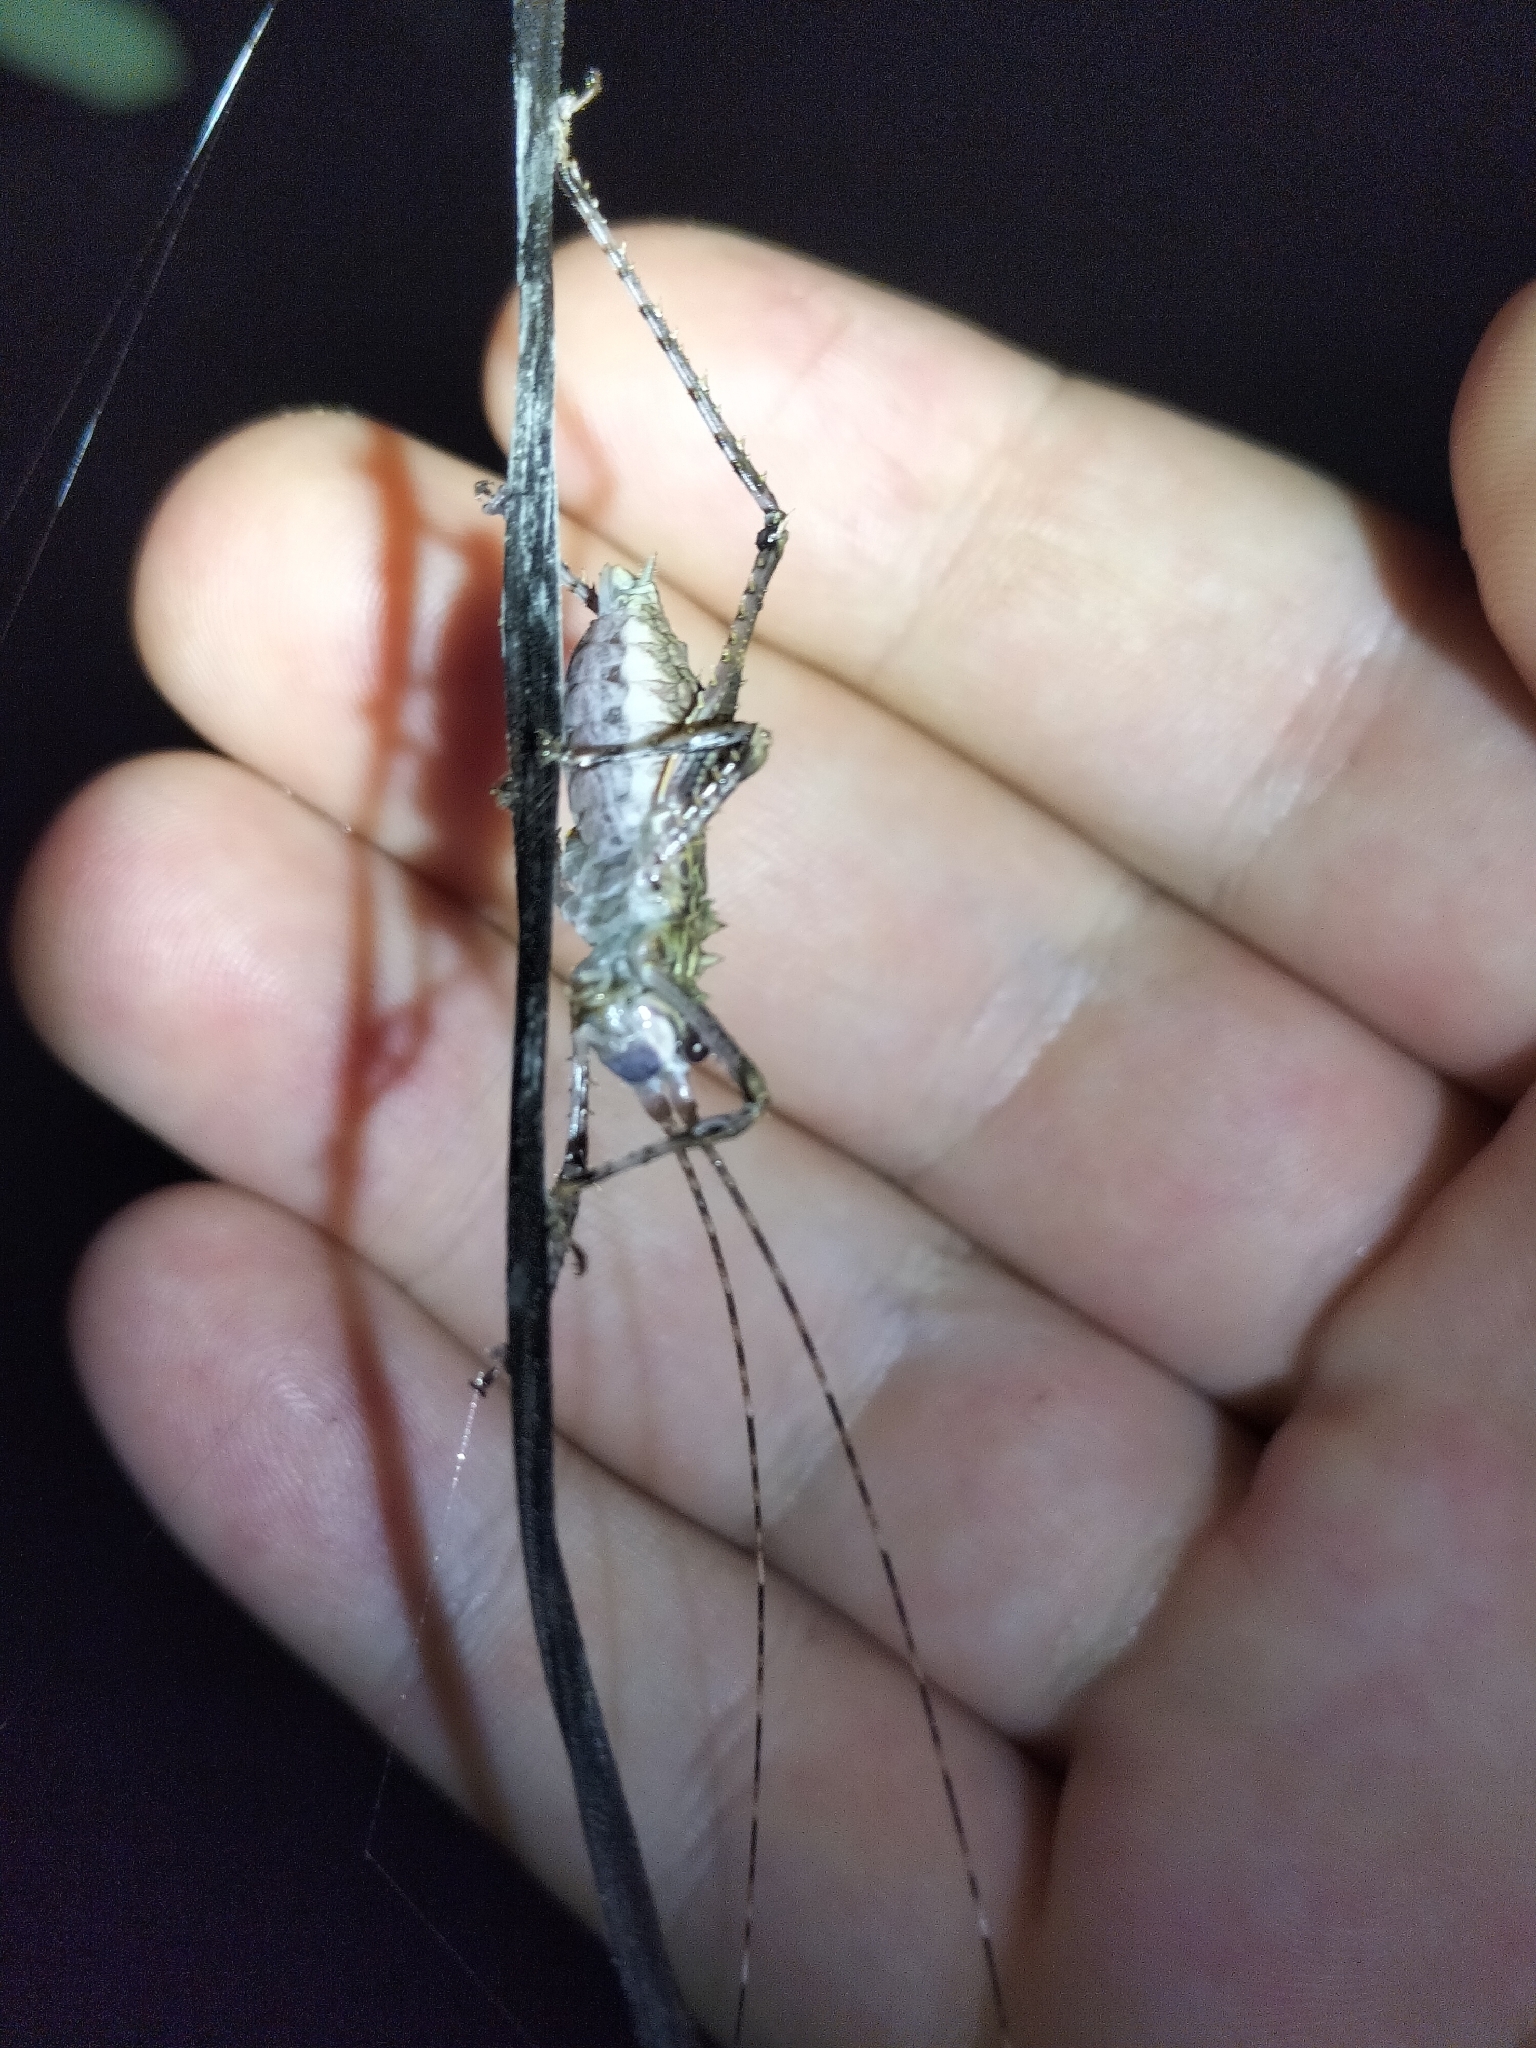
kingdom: Animalia
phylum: Arthropoda
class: Insecta
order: Orthoptera
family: Tettigoniidae
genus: Phricta
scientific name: Phricta spinosa
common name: Giant spiny forest katydid
